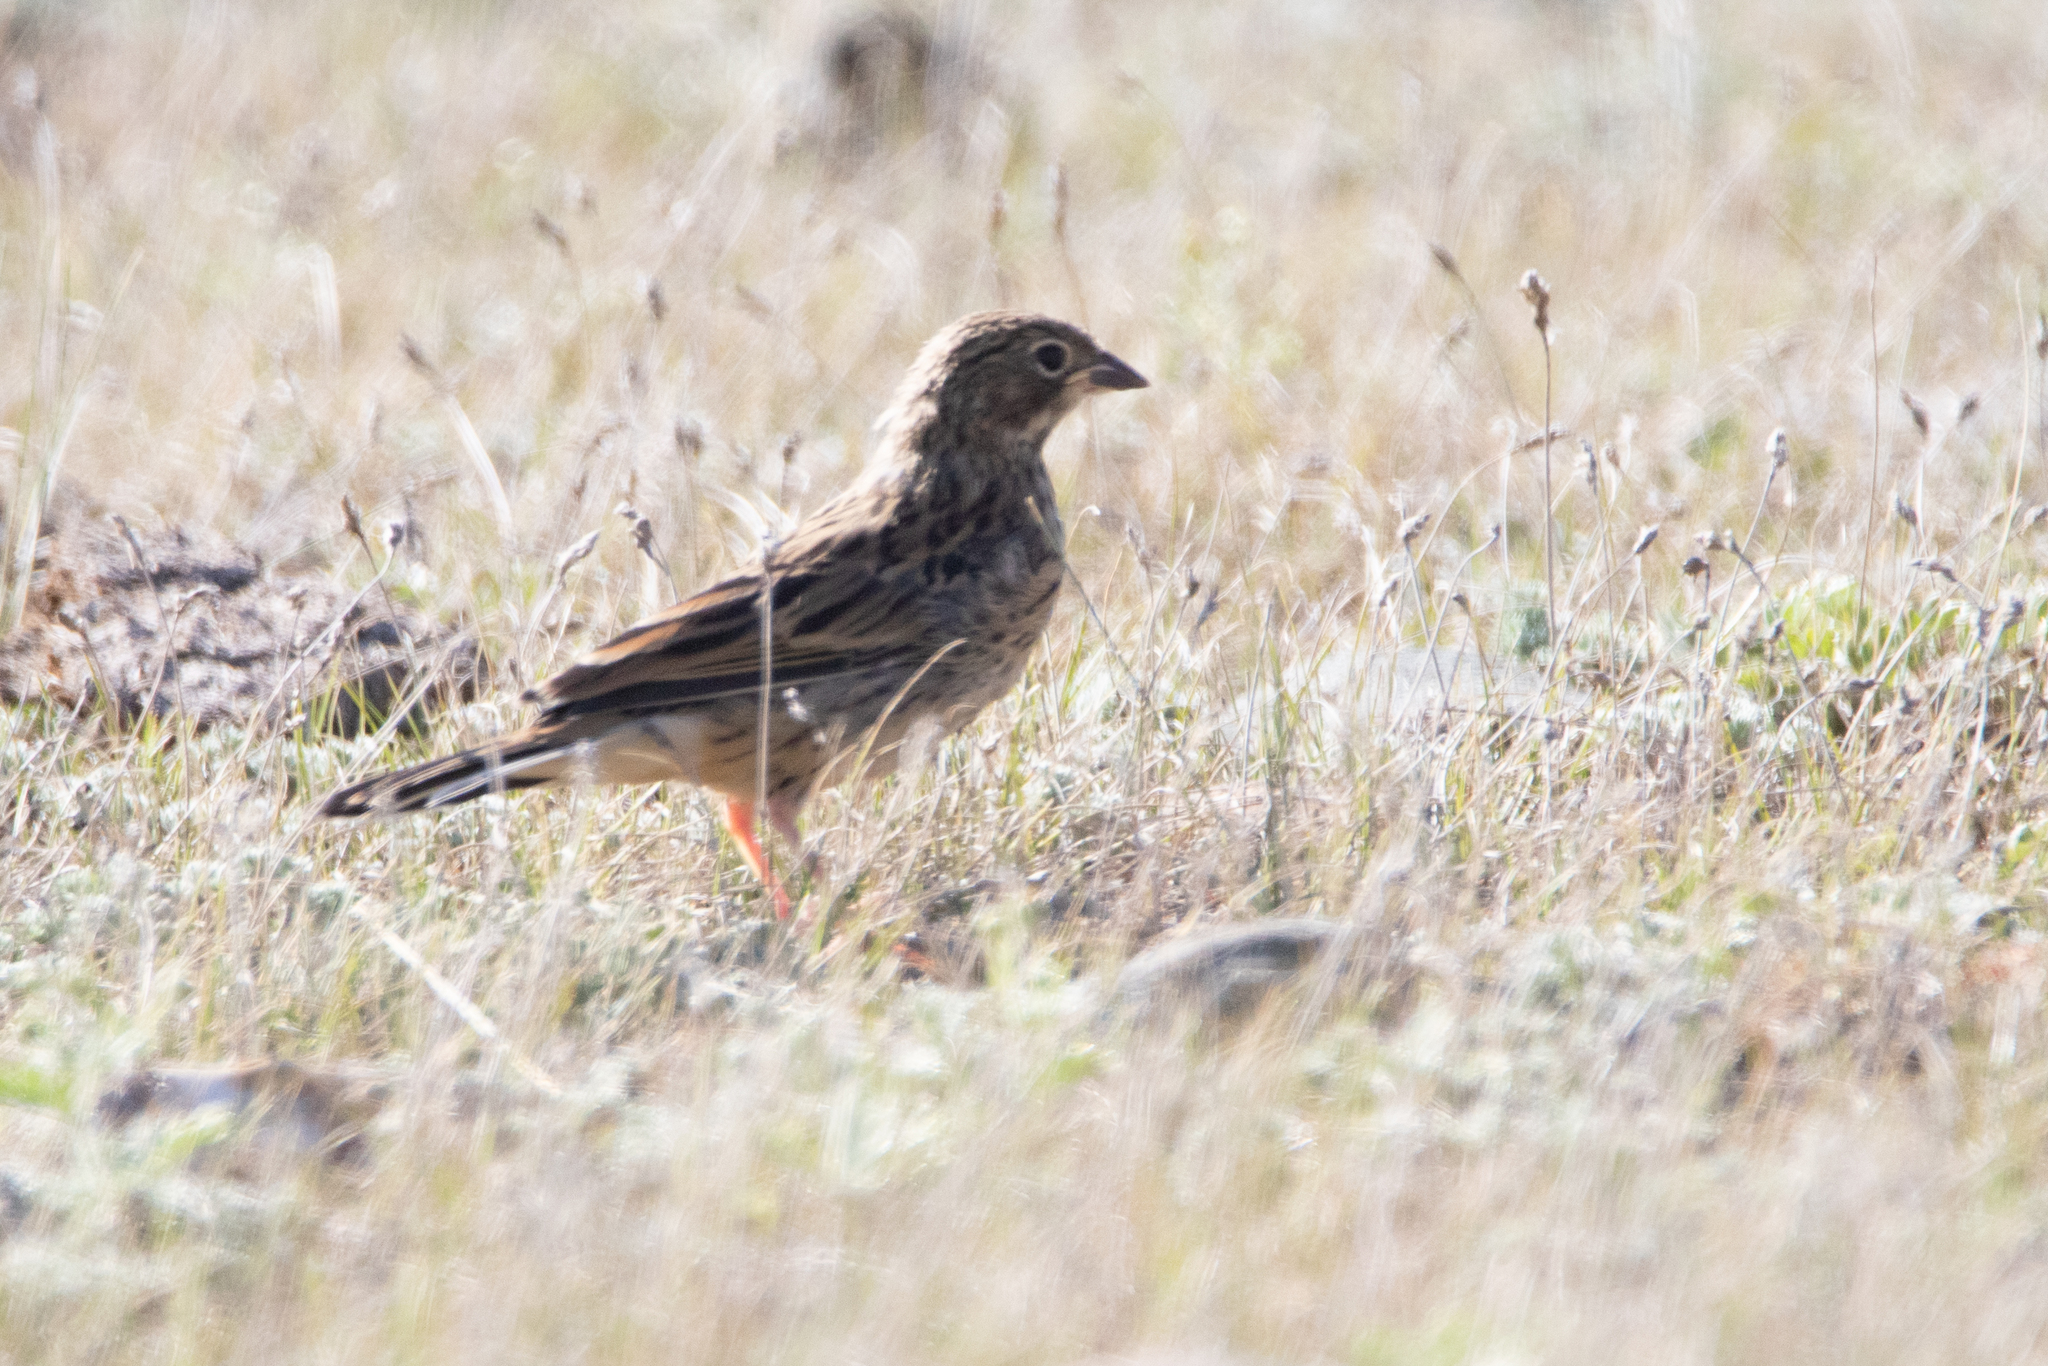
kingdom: Animalia
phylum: Chordata
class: Aves
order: Passeriformes
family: Emberizidae
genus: Emberiza
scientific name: Emberiza hortulana
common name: Ortolan bunting
